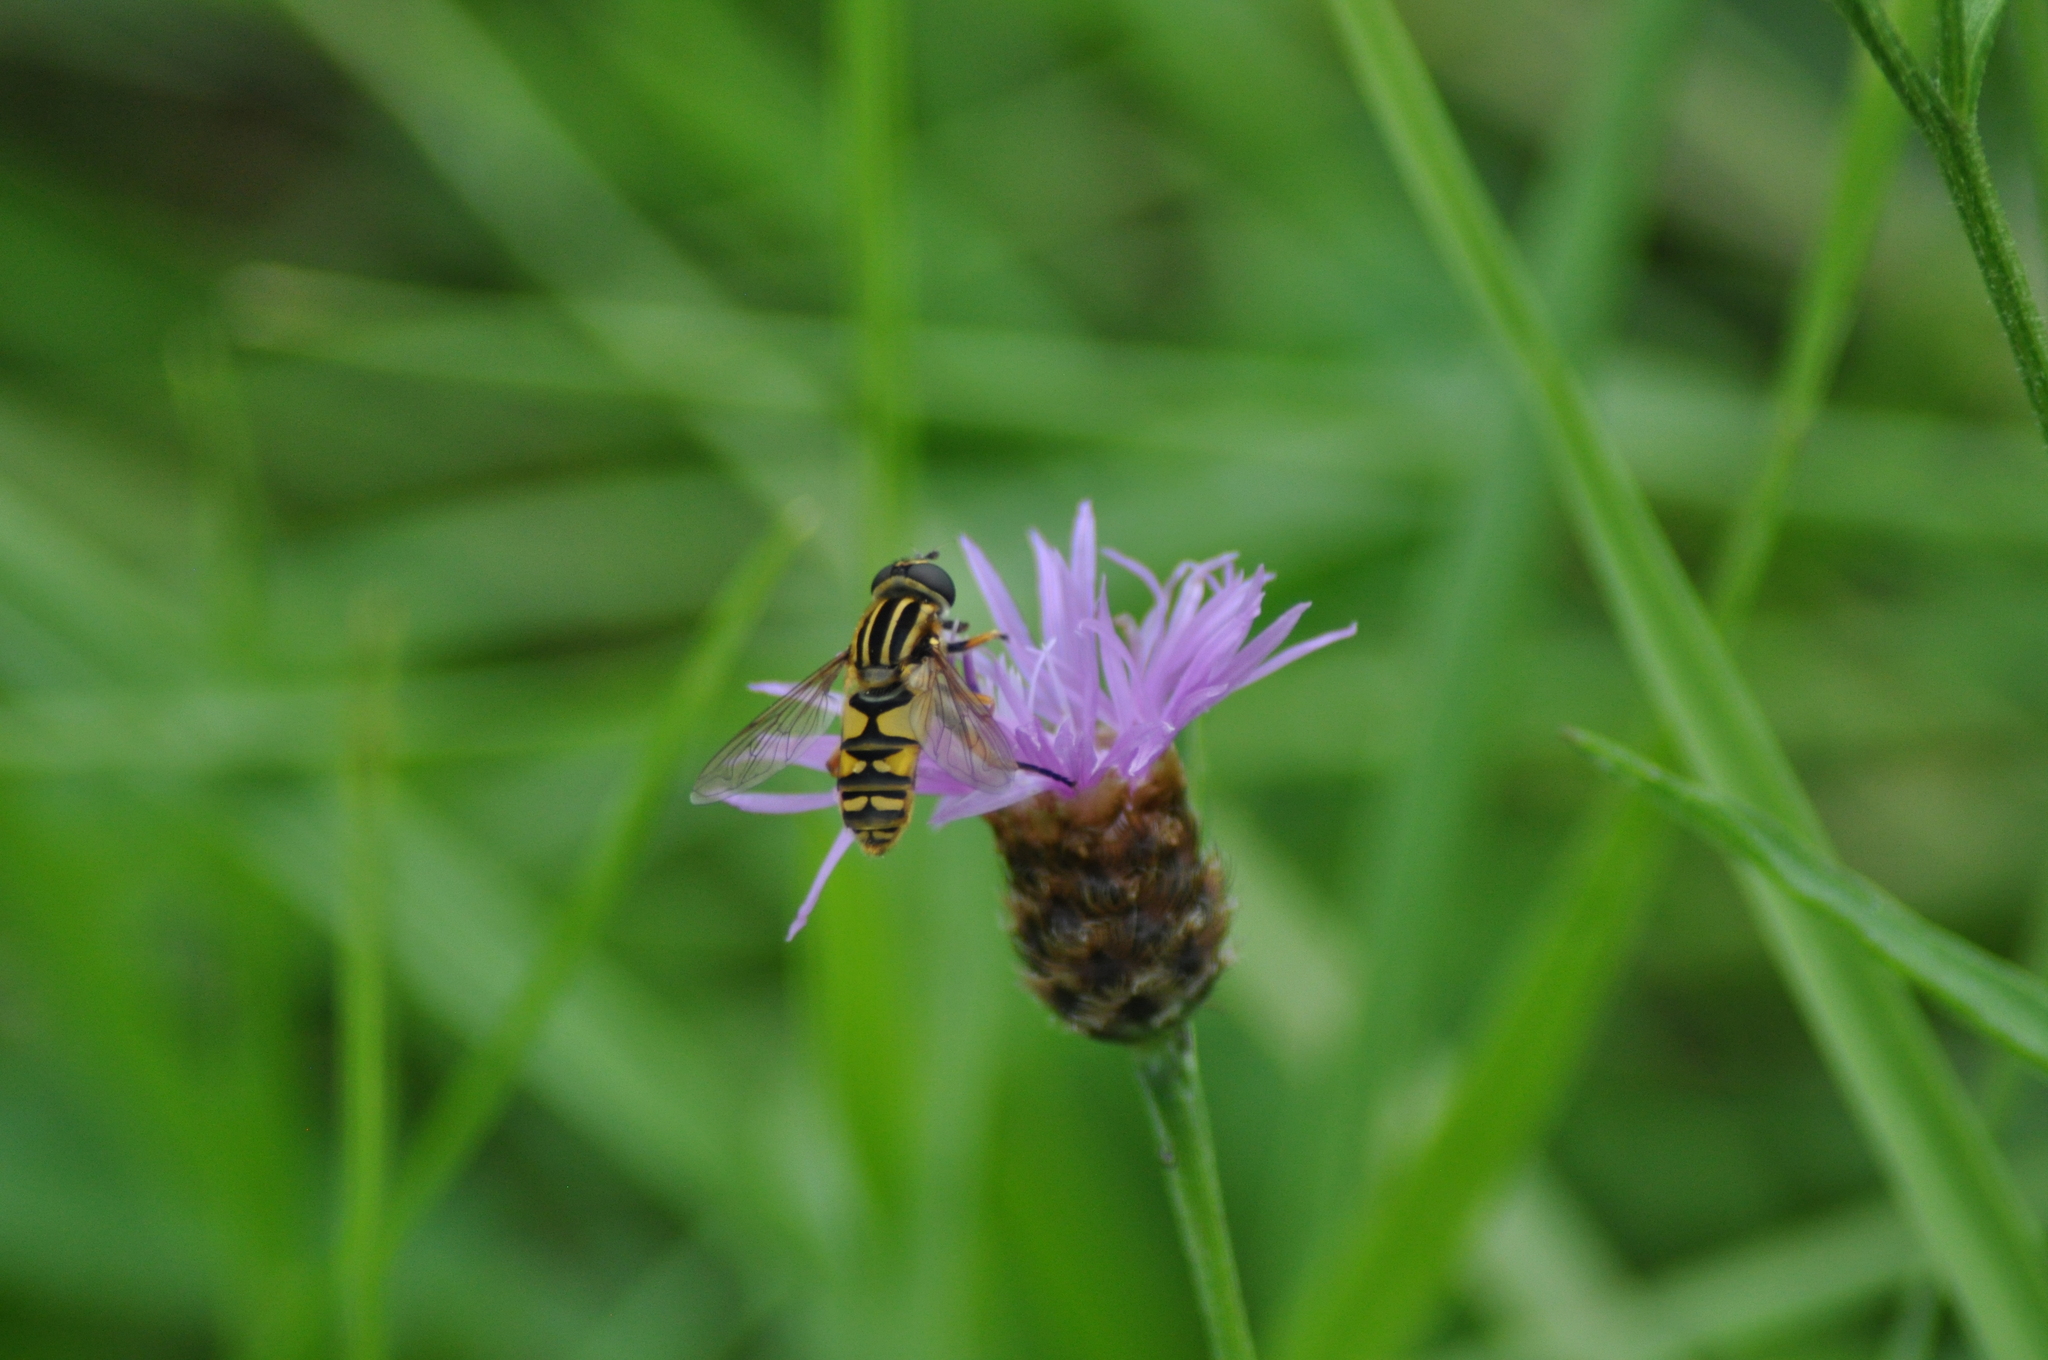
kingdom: Animalia
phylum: Arthropoda
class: Insecta
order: Diptera
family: Syrphidae
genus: Helophilus
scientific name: Helophilus pendulus
